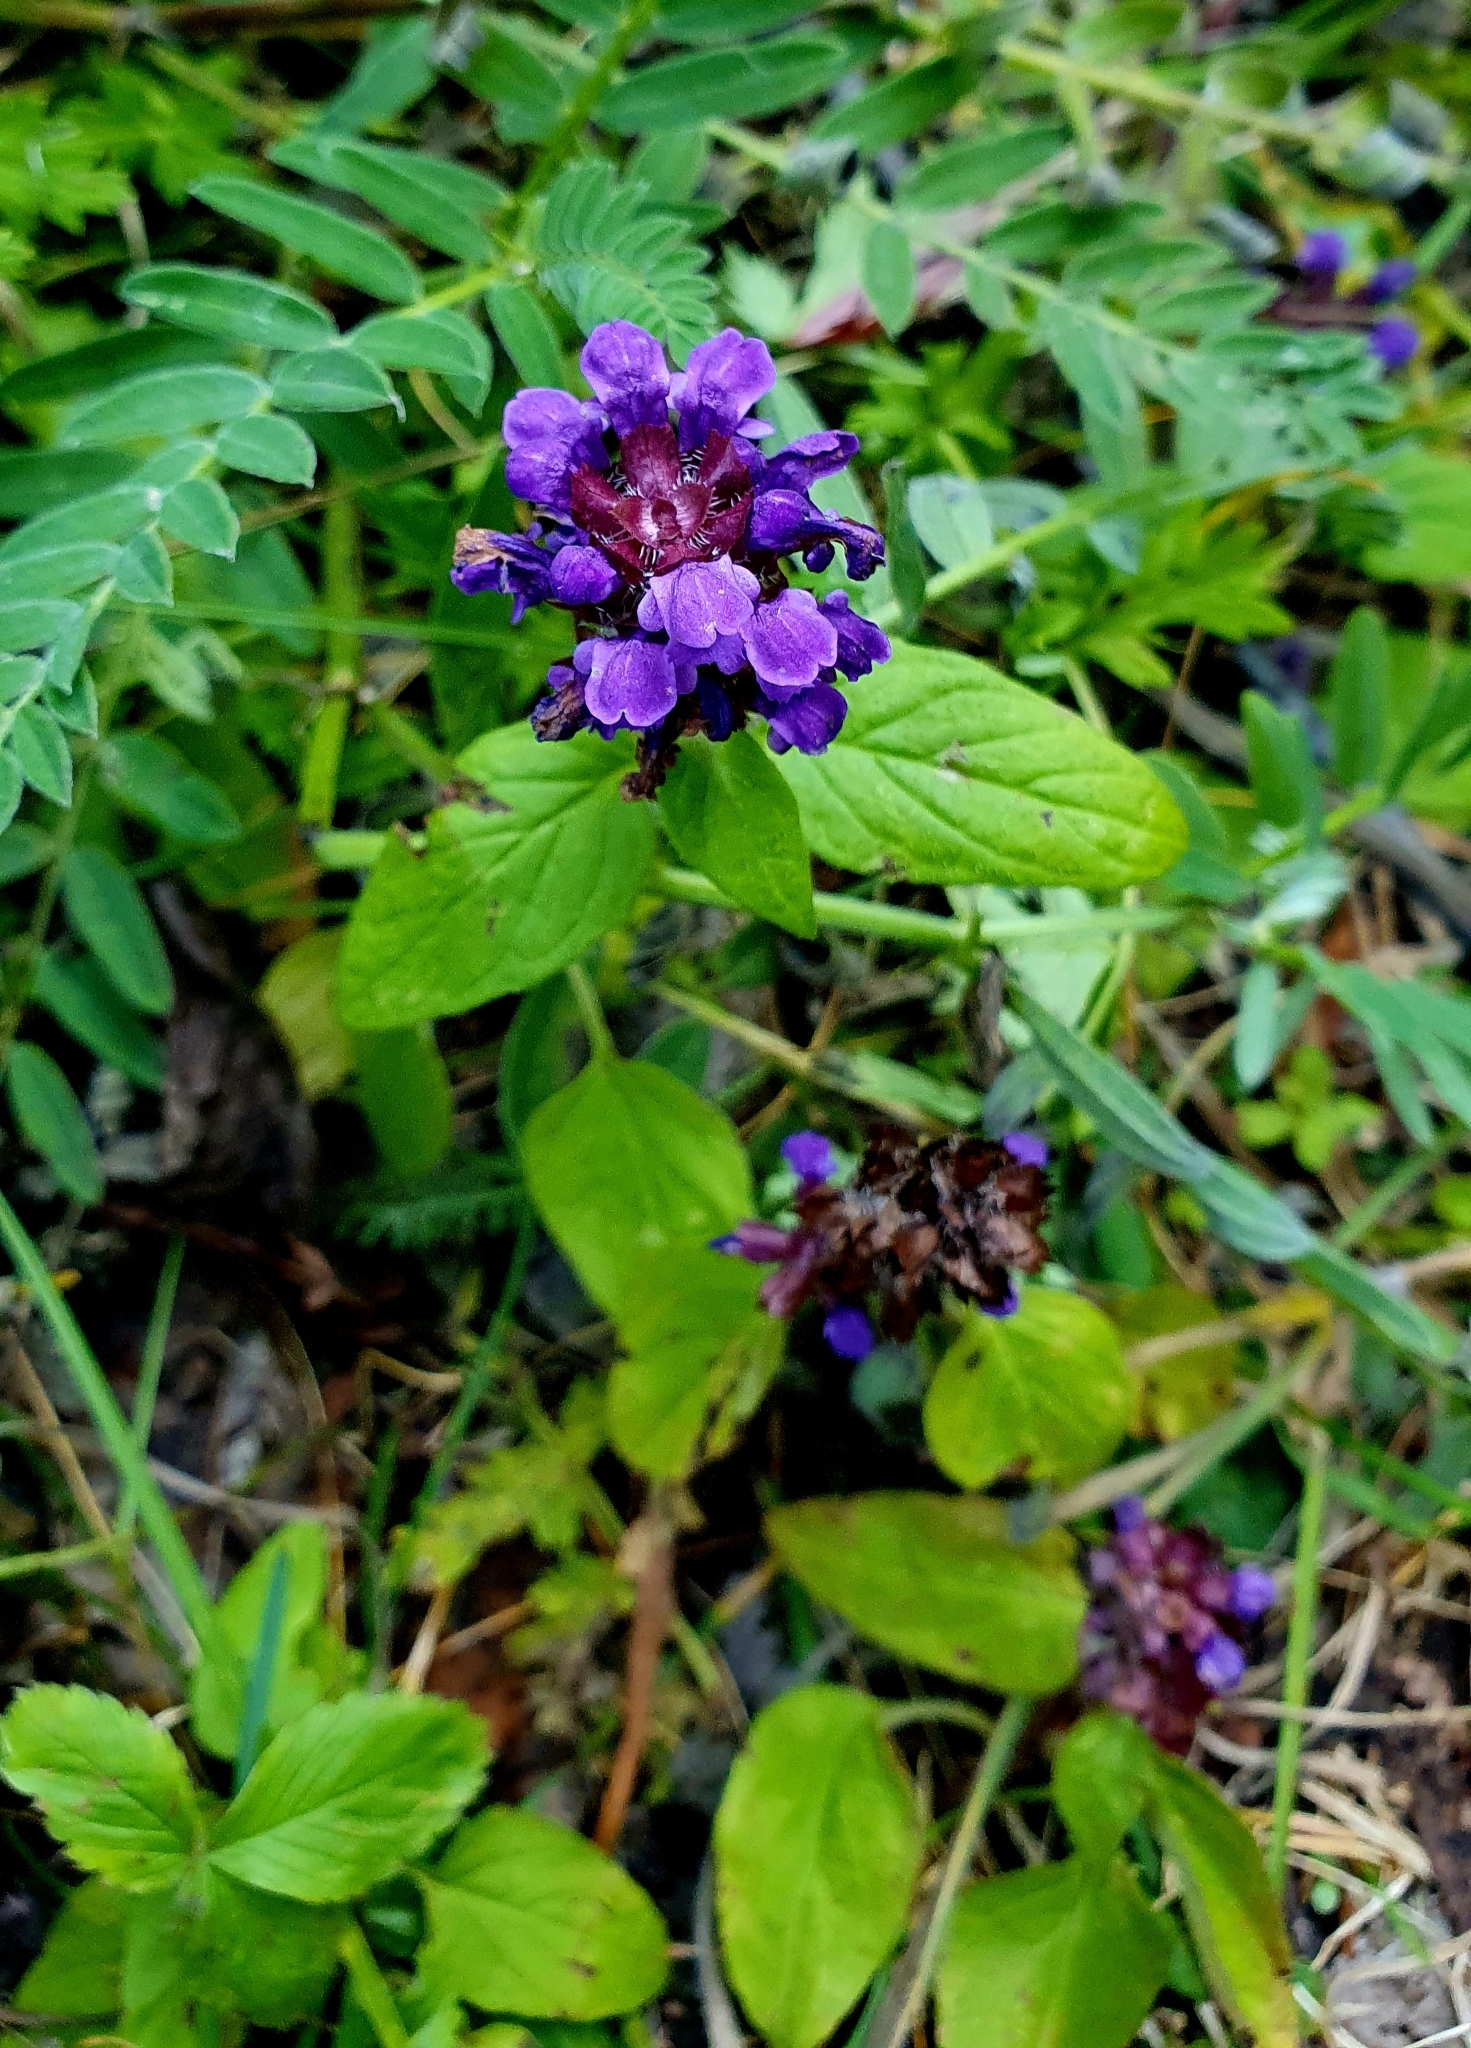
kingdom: Plantae
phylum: Tracheophyta
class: Magnoliopsida
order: Lamiales
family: Lamiaceae
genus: Prunella
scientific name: Prunella vulgaris
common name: Heal-all
